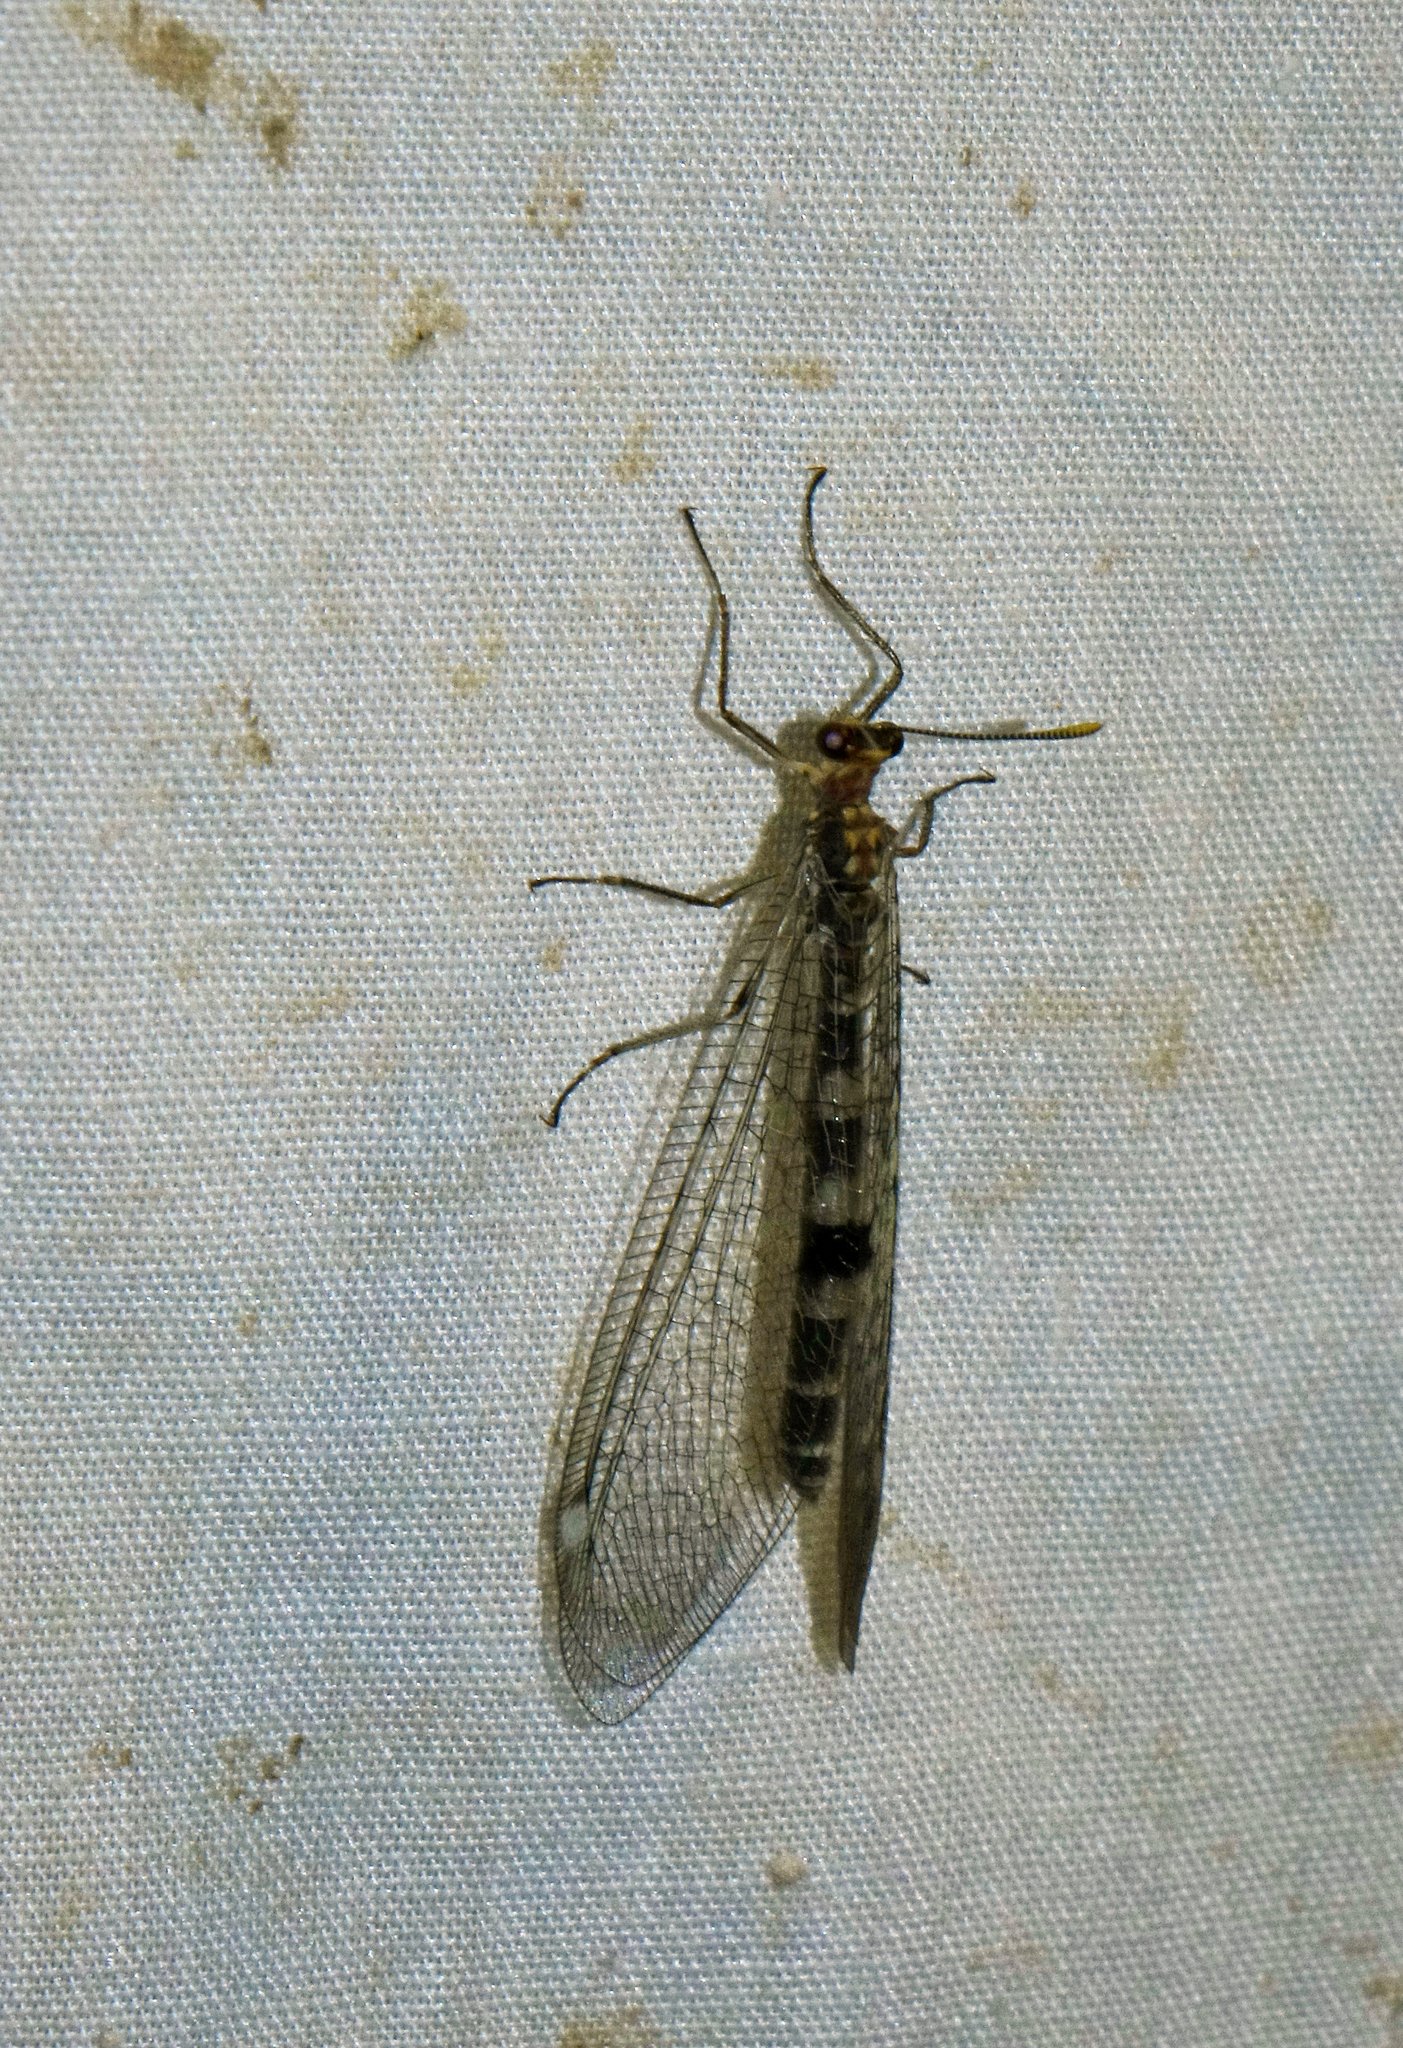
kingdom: Animalia
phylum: Arthropoda
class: Insecta
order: Neuroptera
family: Myrmeleontidae
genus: Megistopus
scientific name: Megistopus flavicornis
